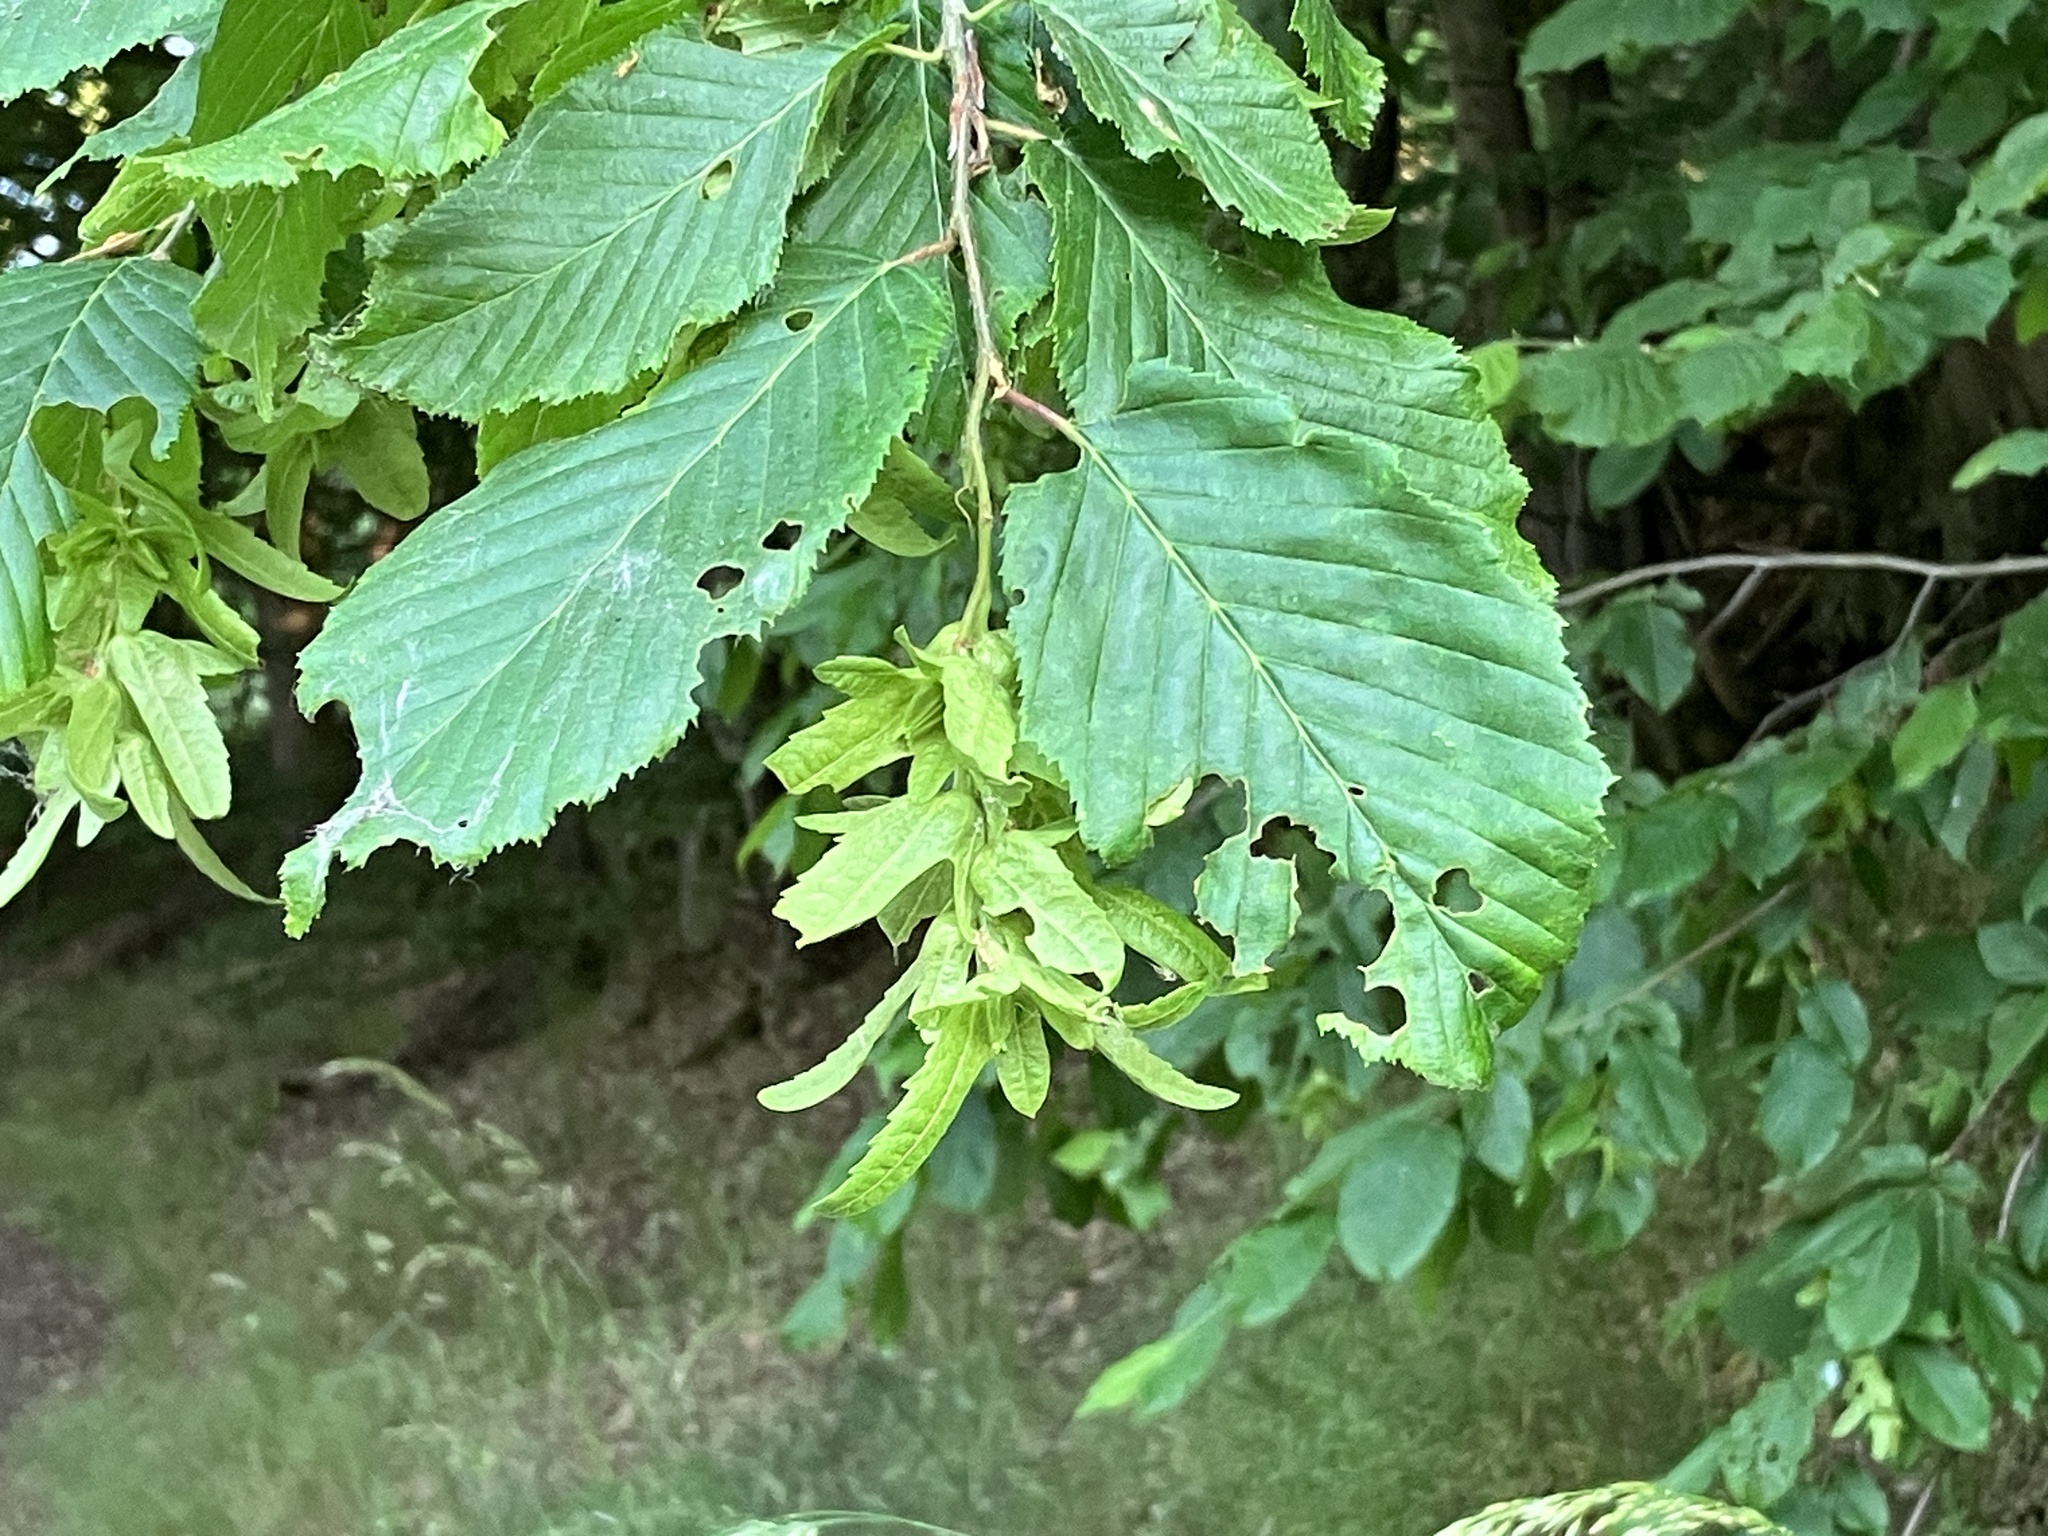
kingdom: Plantae
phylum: Tracheophyta
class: Magnoliopsida
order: Fagales
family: Betulaceae
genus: Carpinus
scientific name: Carpinus betulus
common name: Hornbeam
